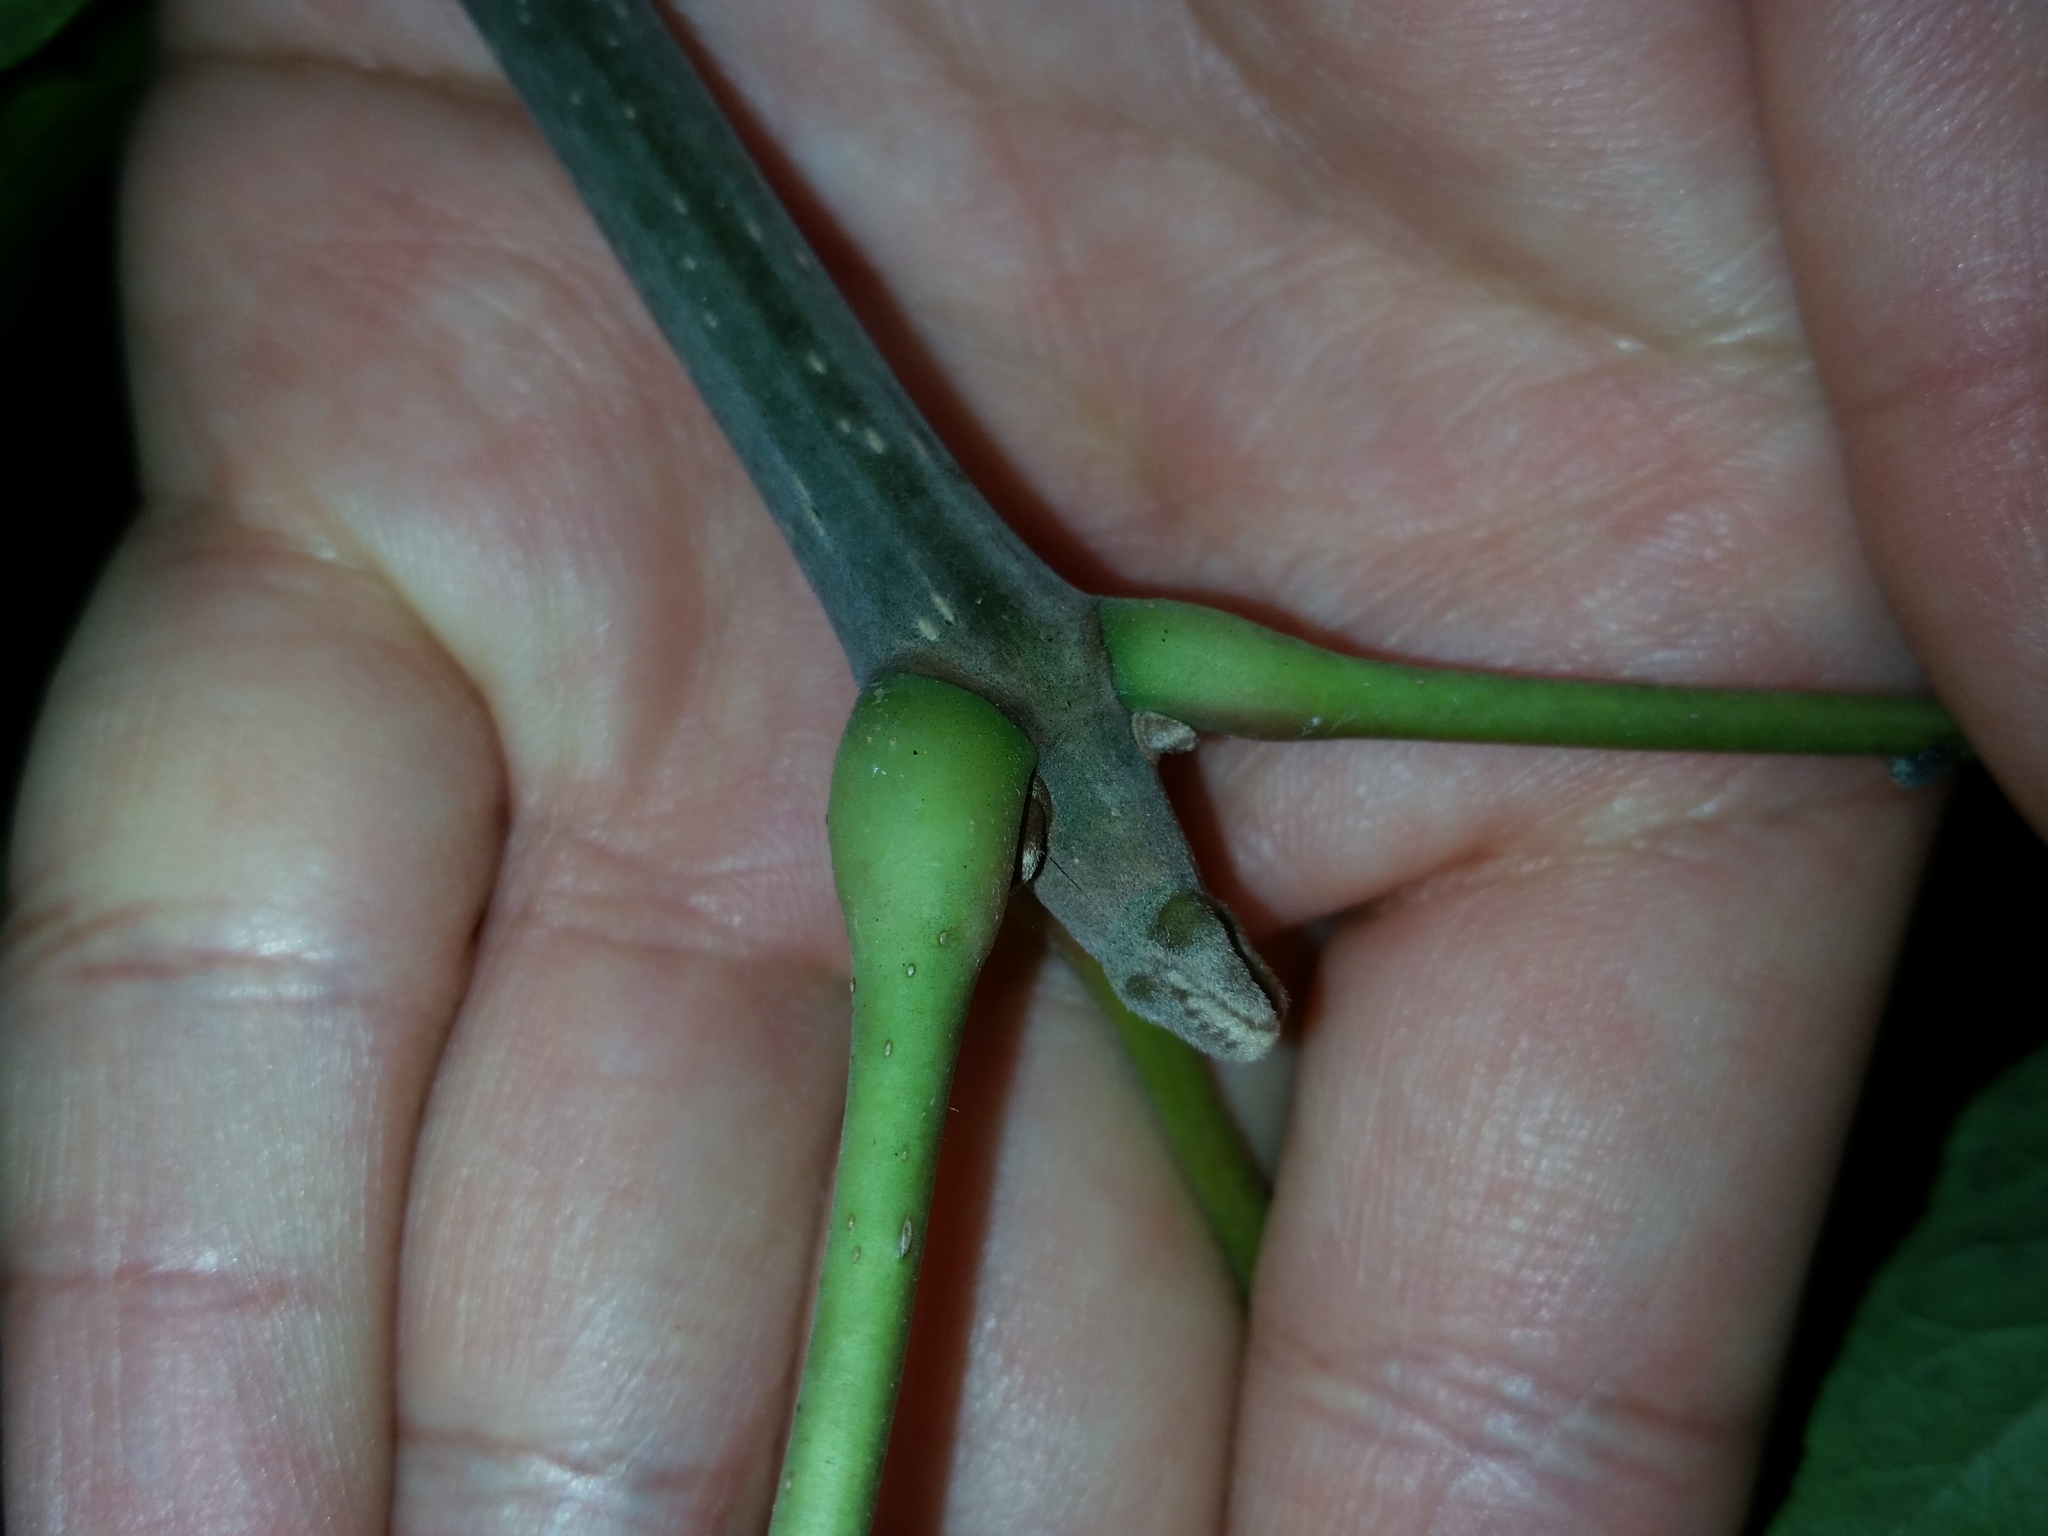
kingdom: Plantae
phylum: Tracheophyta
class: Magnoliopsida
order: Sapindales
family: Rutaceae
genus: Tetradium
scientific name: Tetradium daniellii
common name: Bee-bee tree
